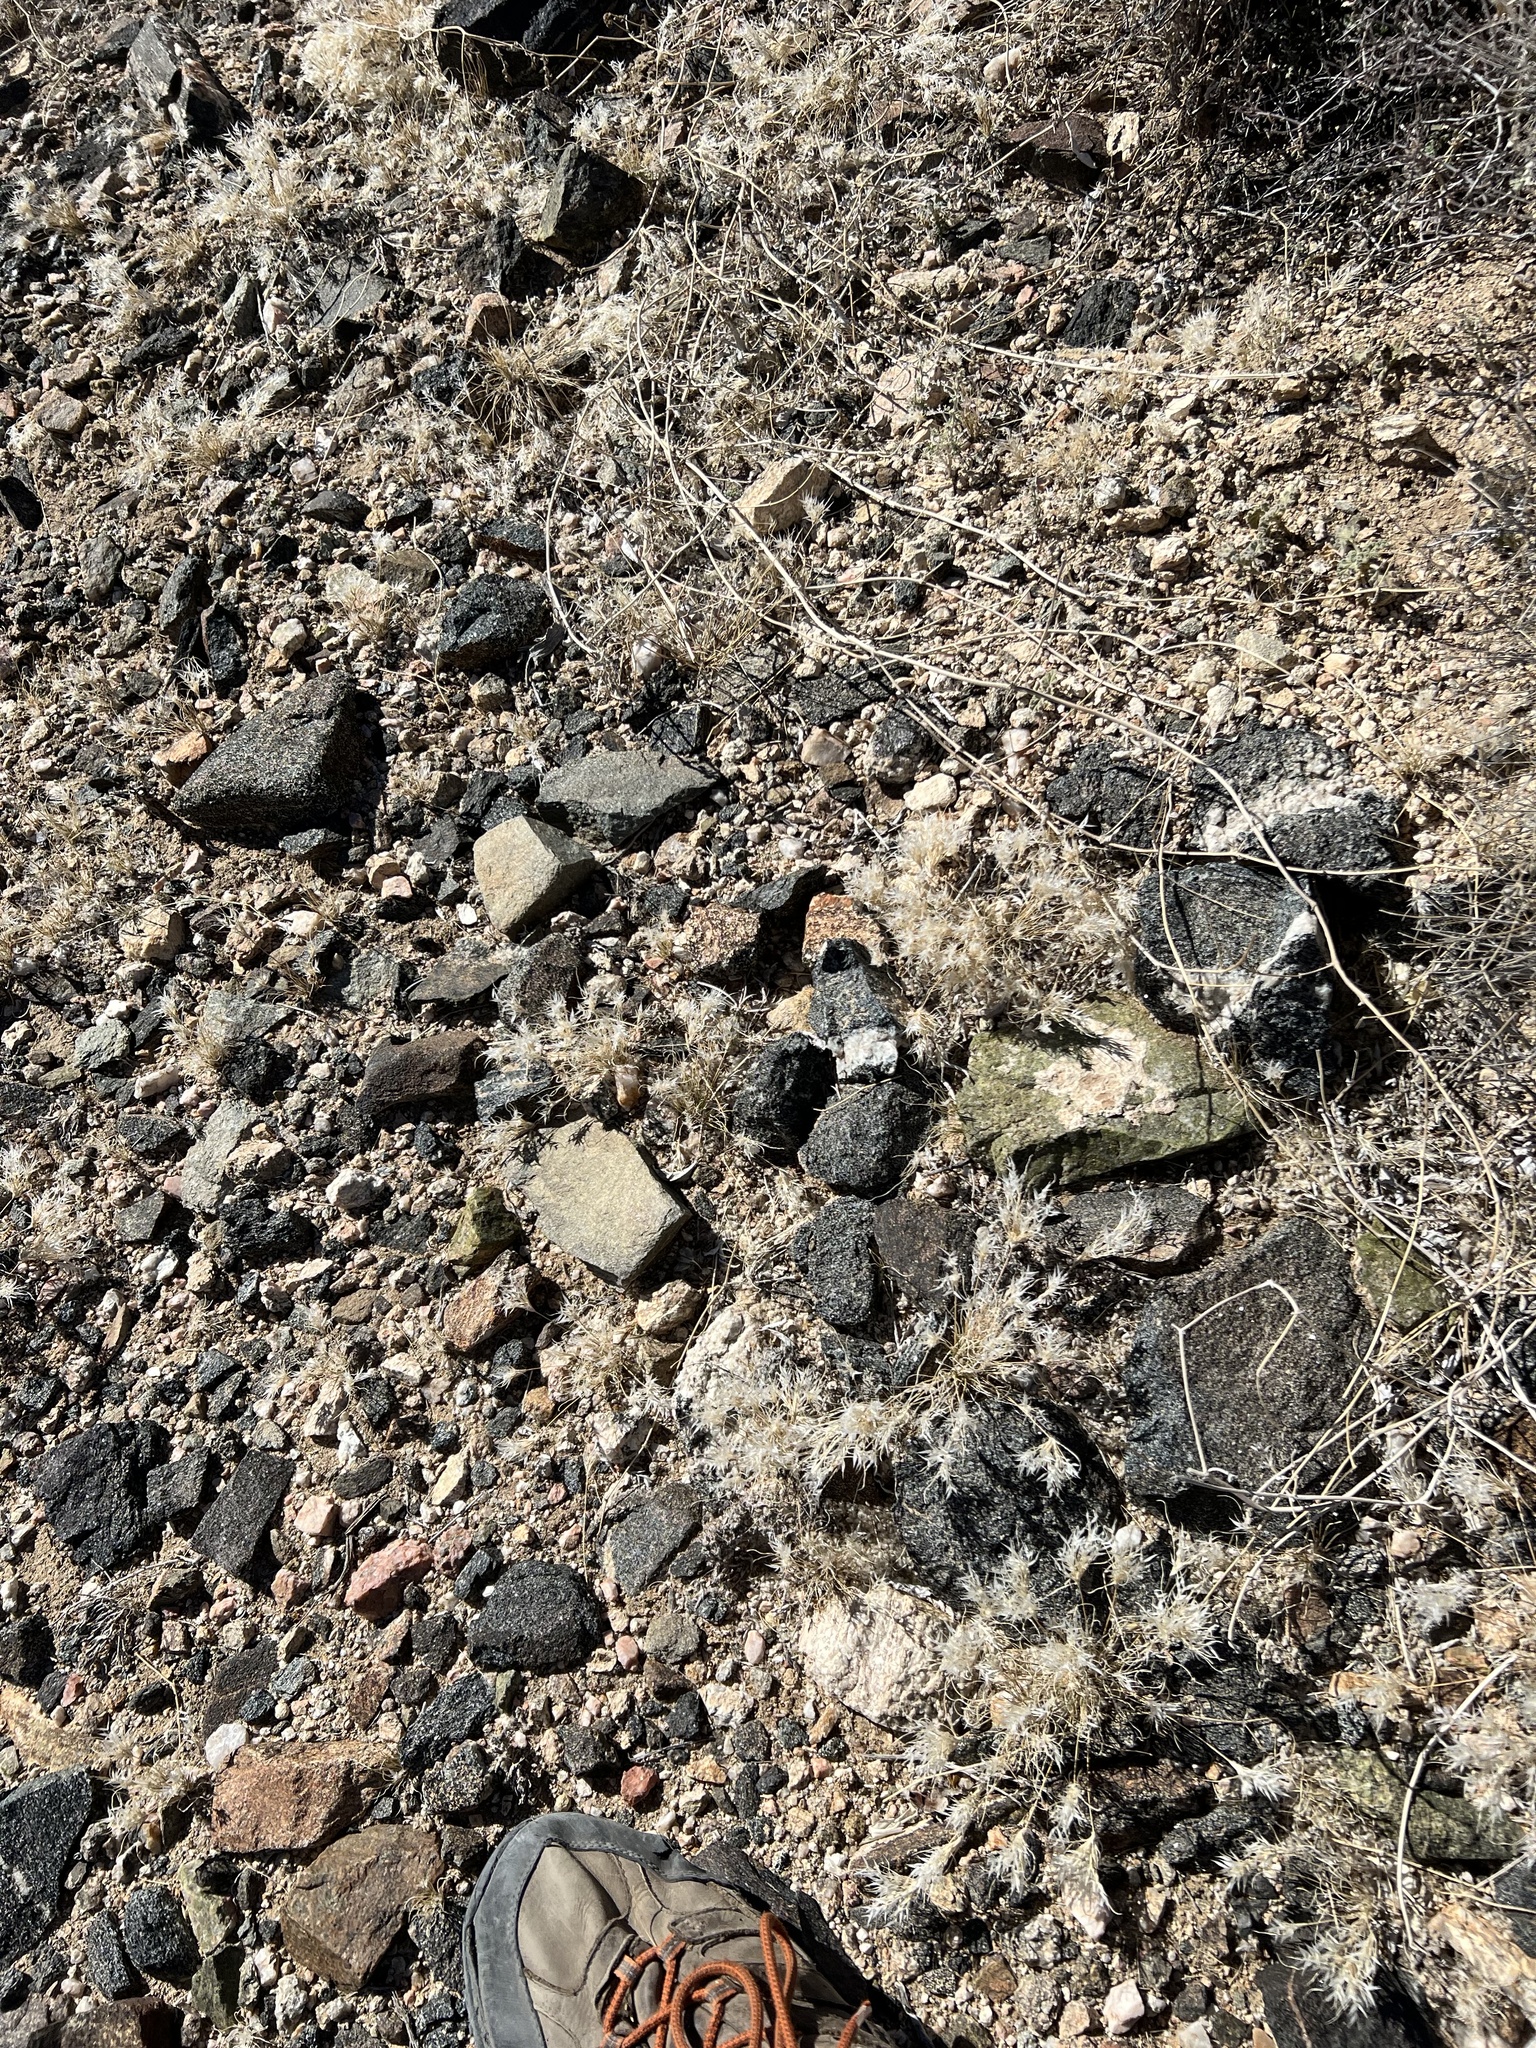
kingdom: Plantae
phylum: Tracheophyta
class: Liliopsida
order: Poales
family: Poaceae
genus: Dasyochloa
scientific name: Dasyochloa pulchella
